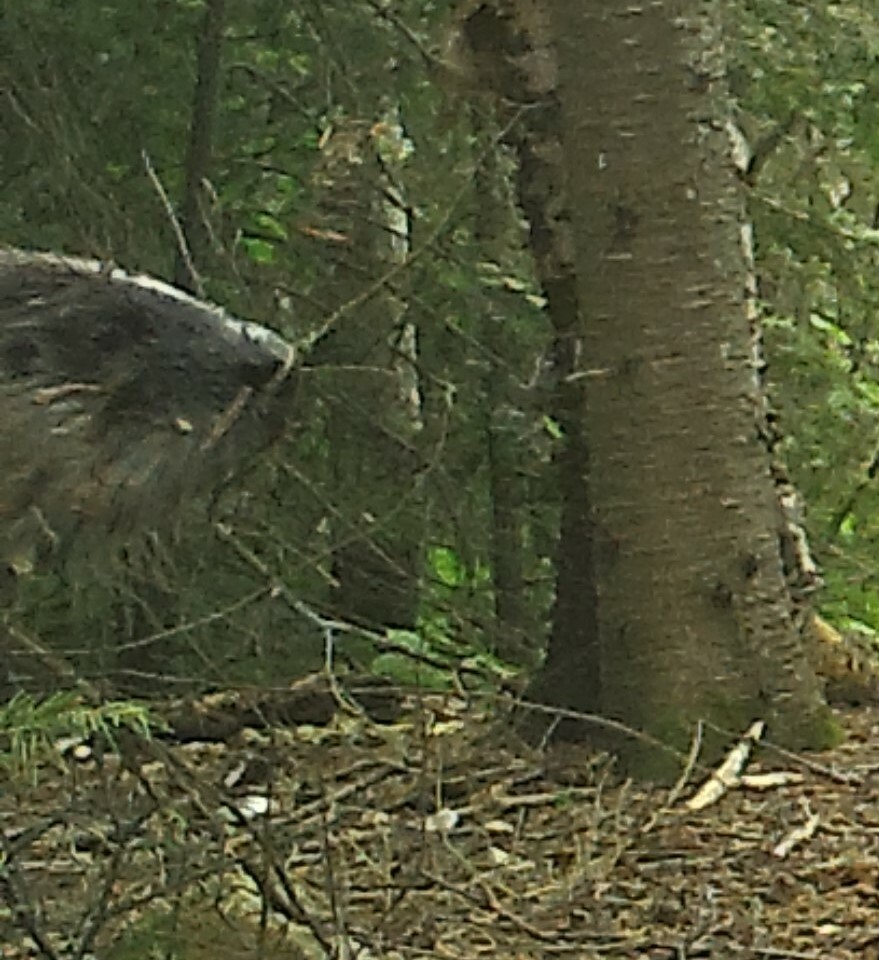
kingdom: Animalia
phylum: Chordata
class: Mammalia
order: Carnivora
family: Mustelidae
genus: Lontra
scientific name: Lontra canadensis
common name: North american river otter
